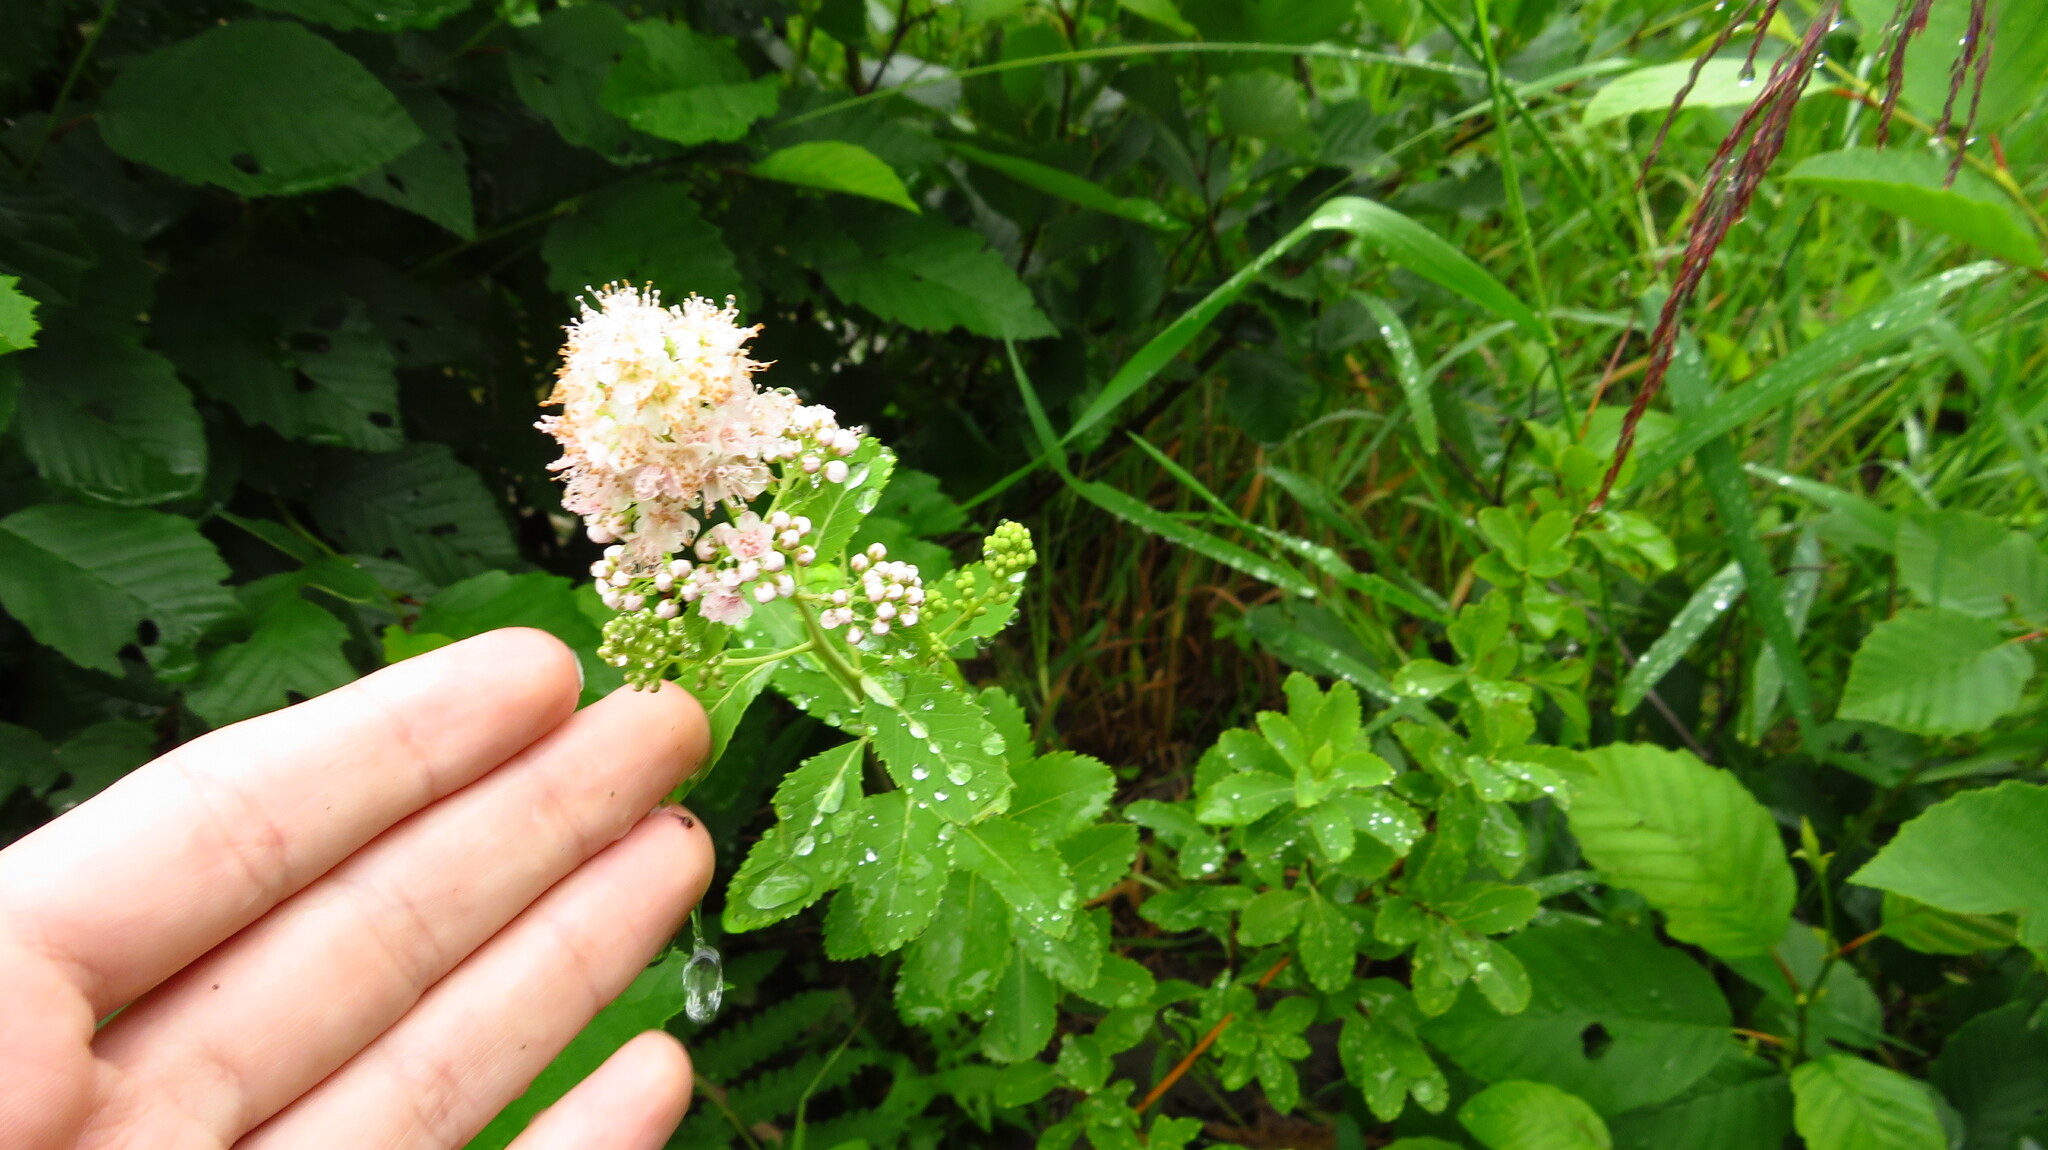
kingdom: Plantae
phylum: Tracheophyta
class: Magnoliopsida
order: Rosales
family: Rosaceae
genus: Spiraea
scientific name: Spiraea alba
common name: Pale bridewort
